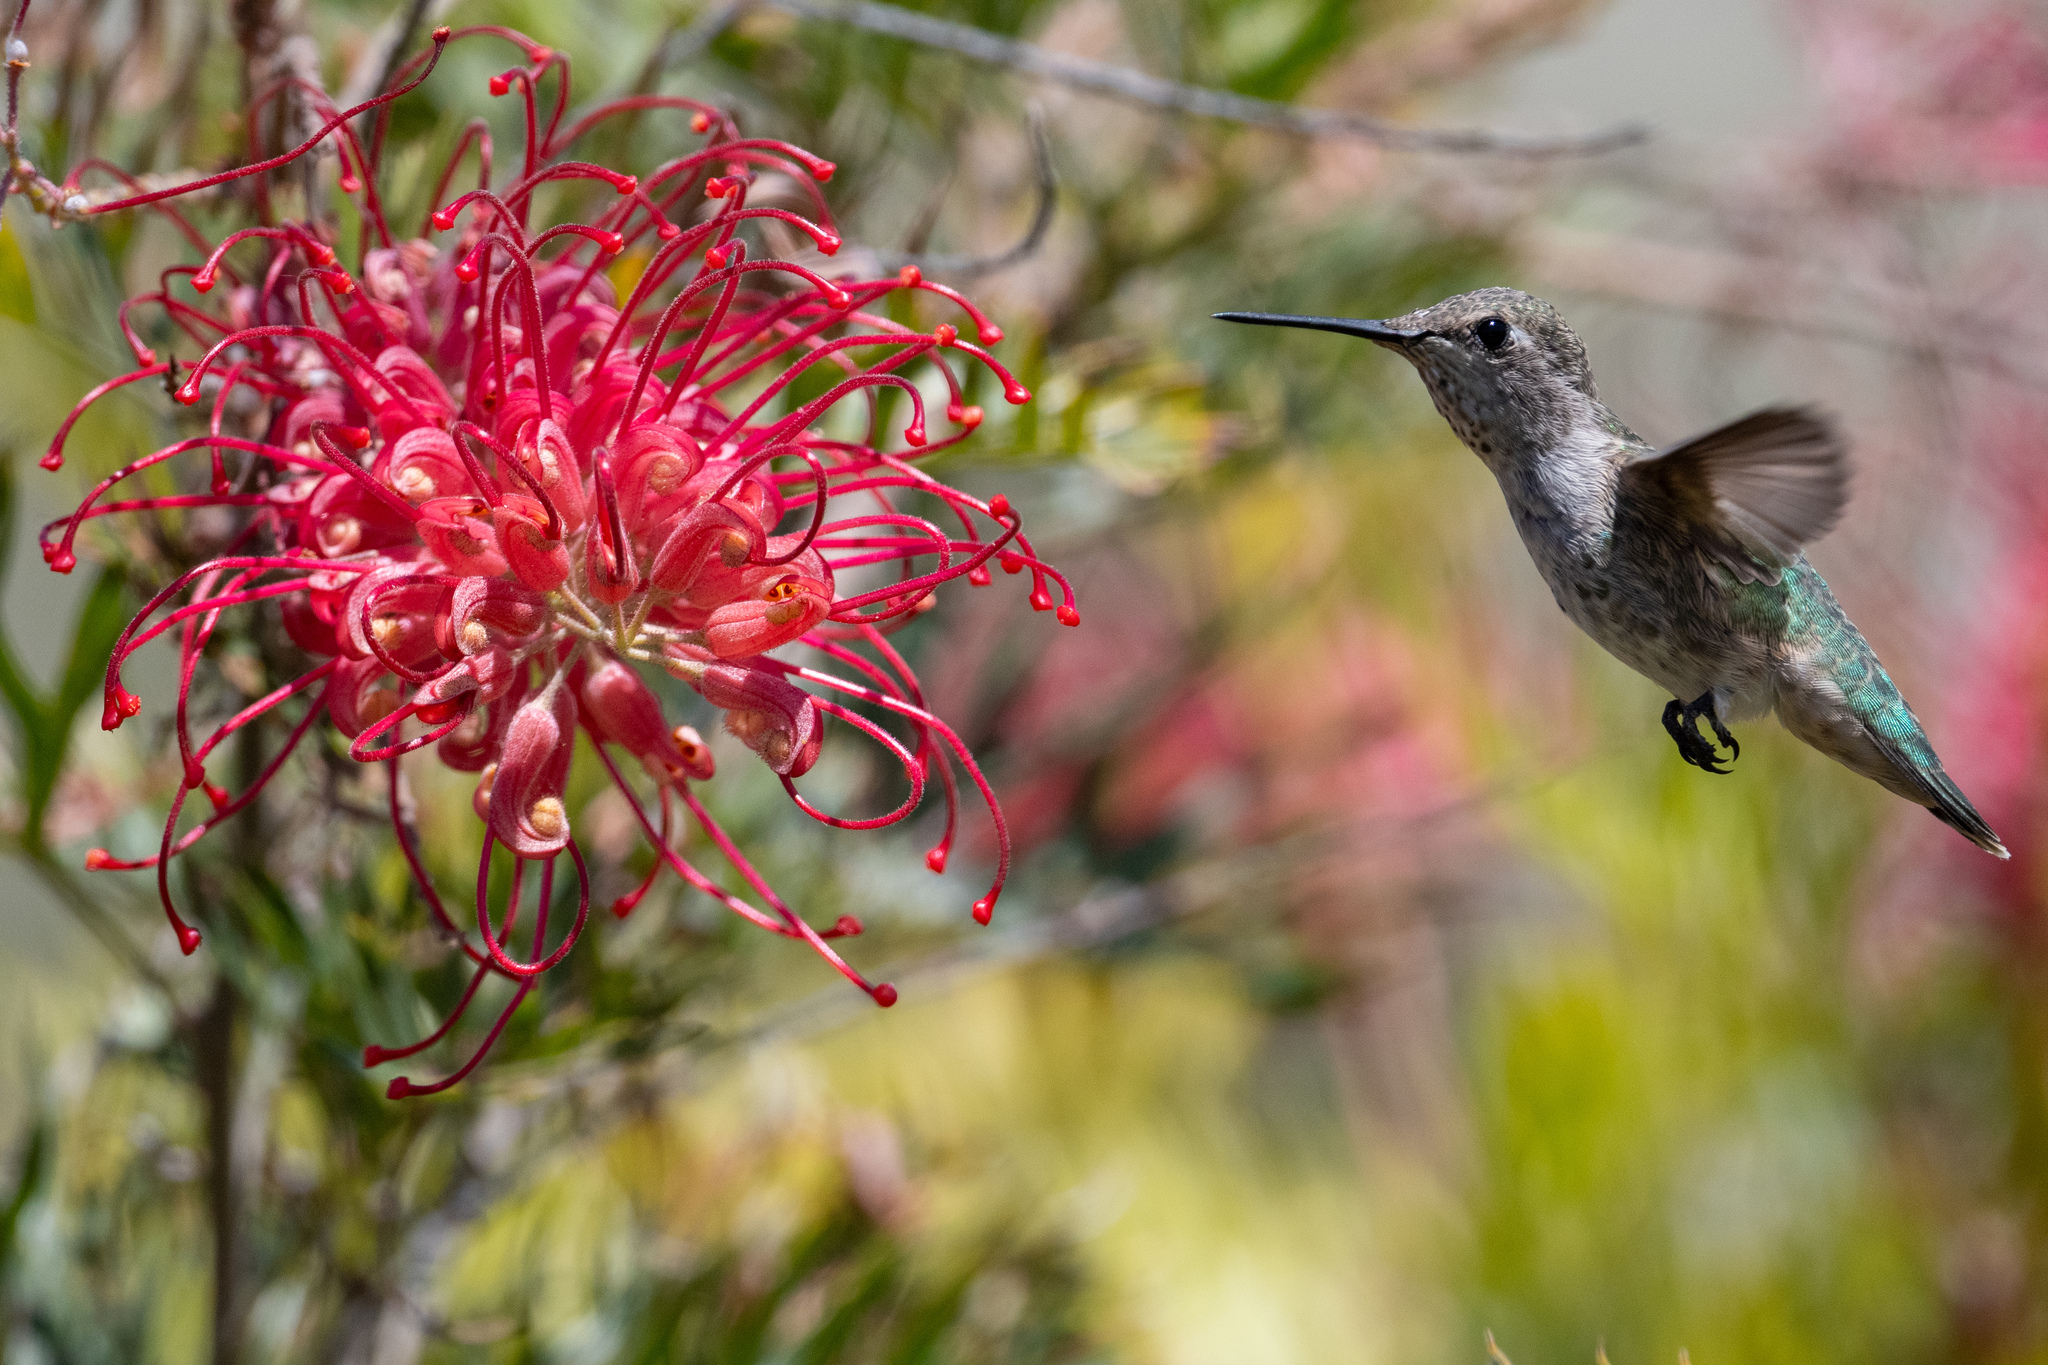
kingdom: Animalia
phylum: Chordata
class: Aves
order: Apodiformes
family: Trochilidae
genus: Calypte
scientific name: Calypte anna
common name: Anna's hummingbird
